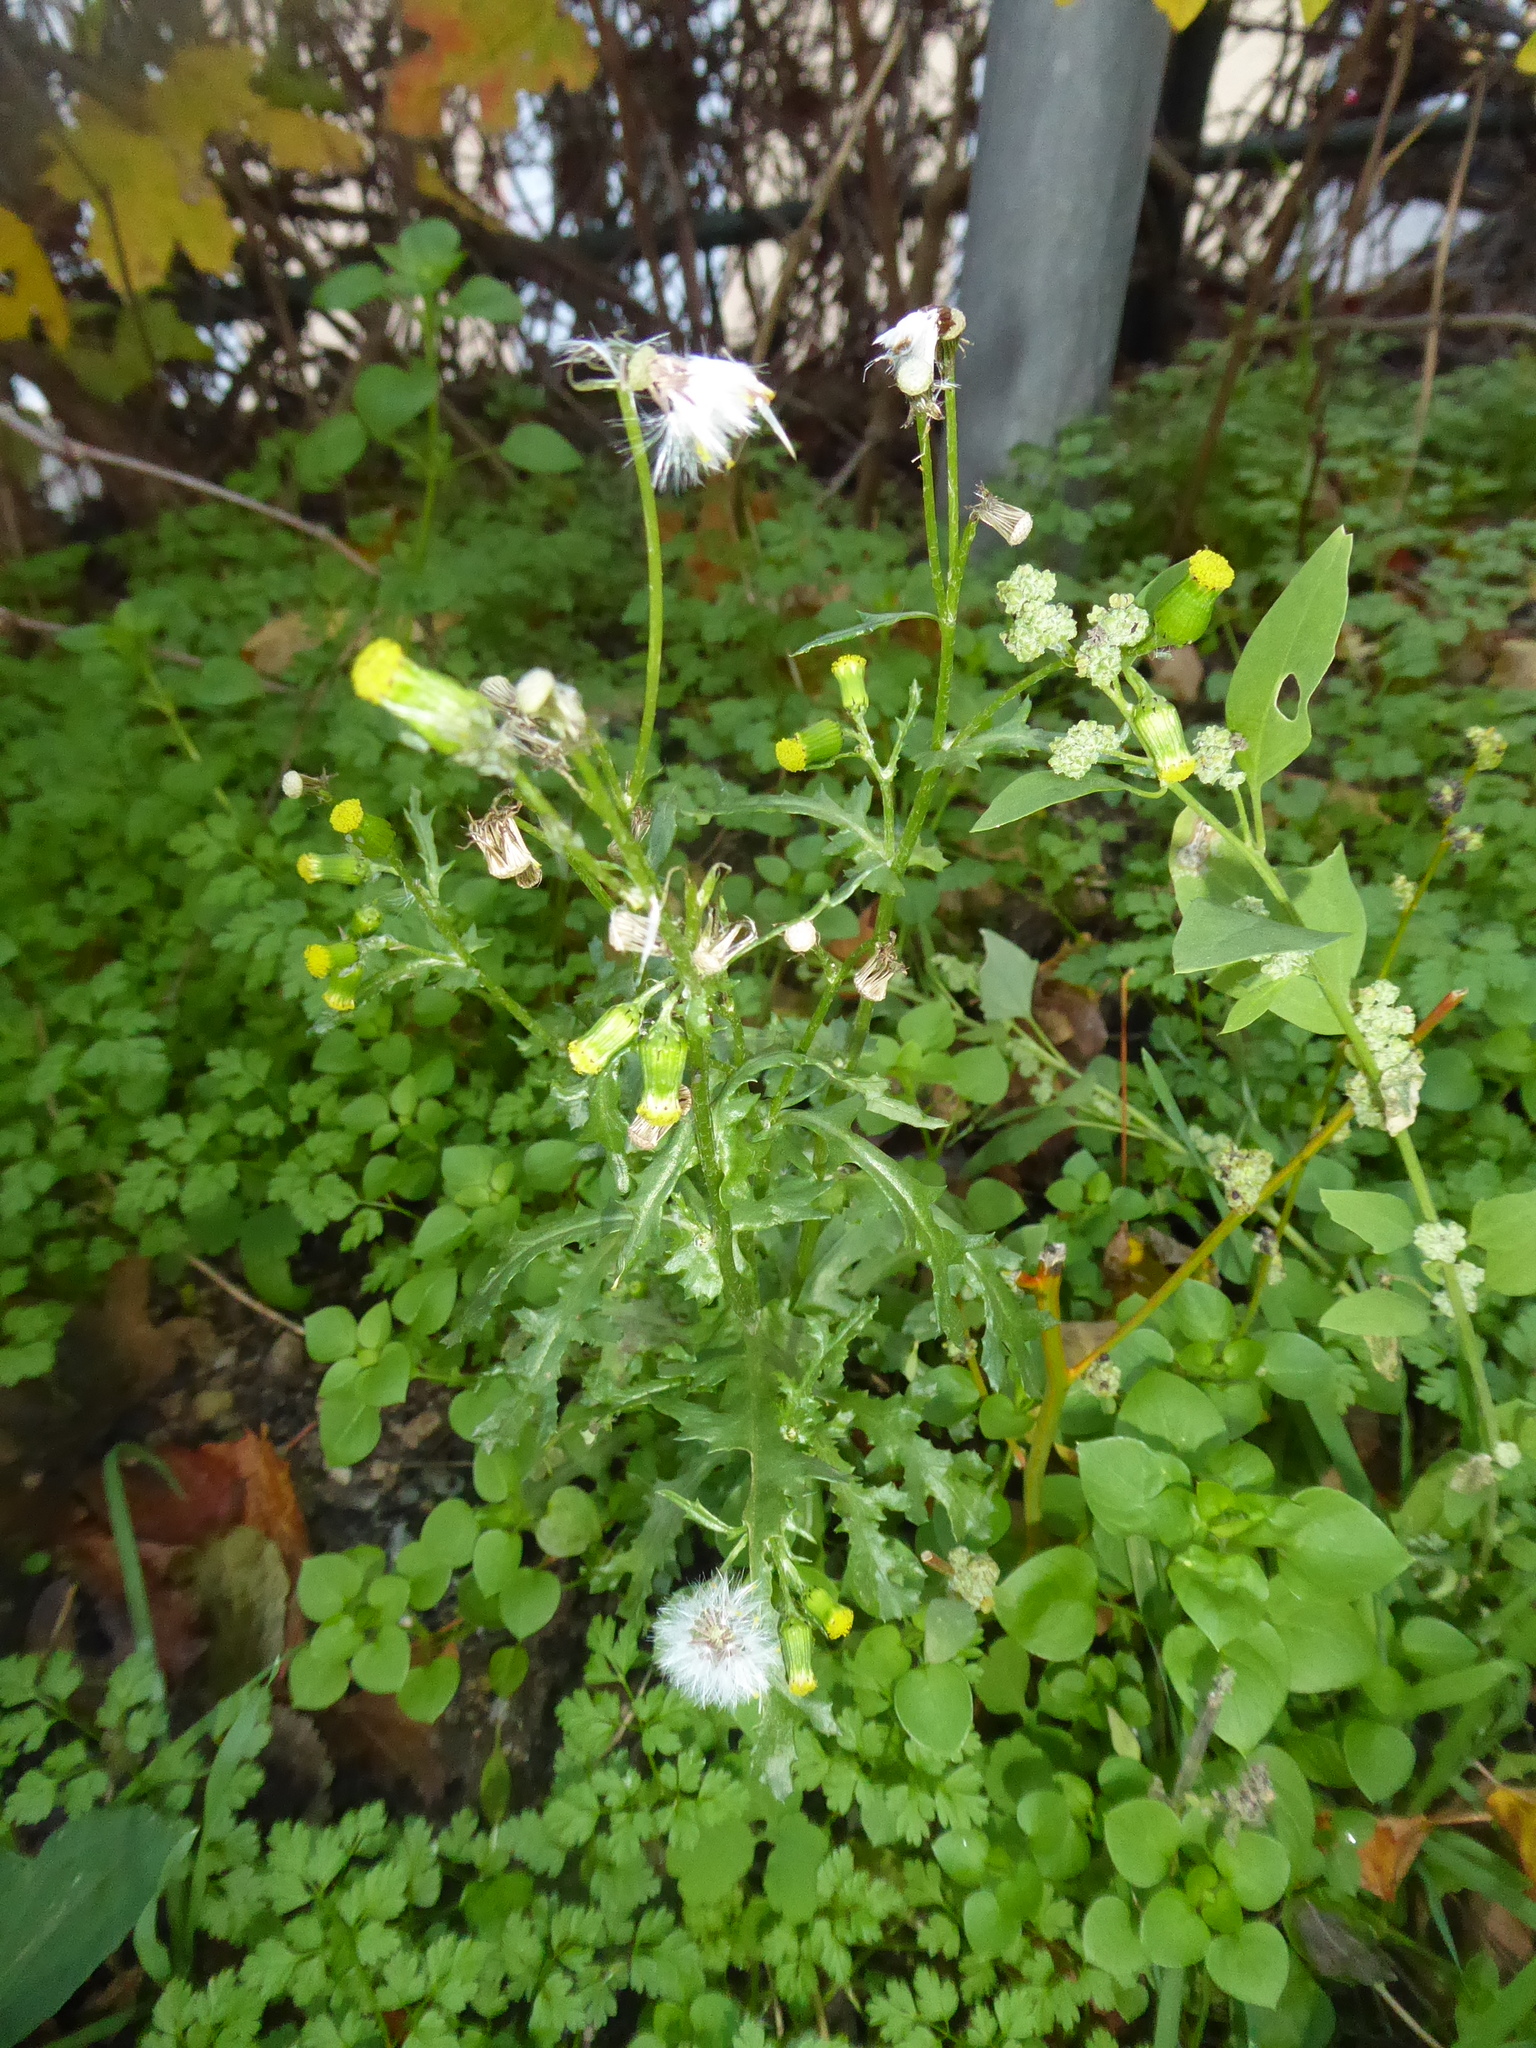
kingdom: Plantae
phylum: Tracheophyta
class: Magnoliopsida
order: Asterales
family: Asteraceae
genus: Senecio
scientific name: Senecio vulgaris
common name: Old-man-in-the-spring
